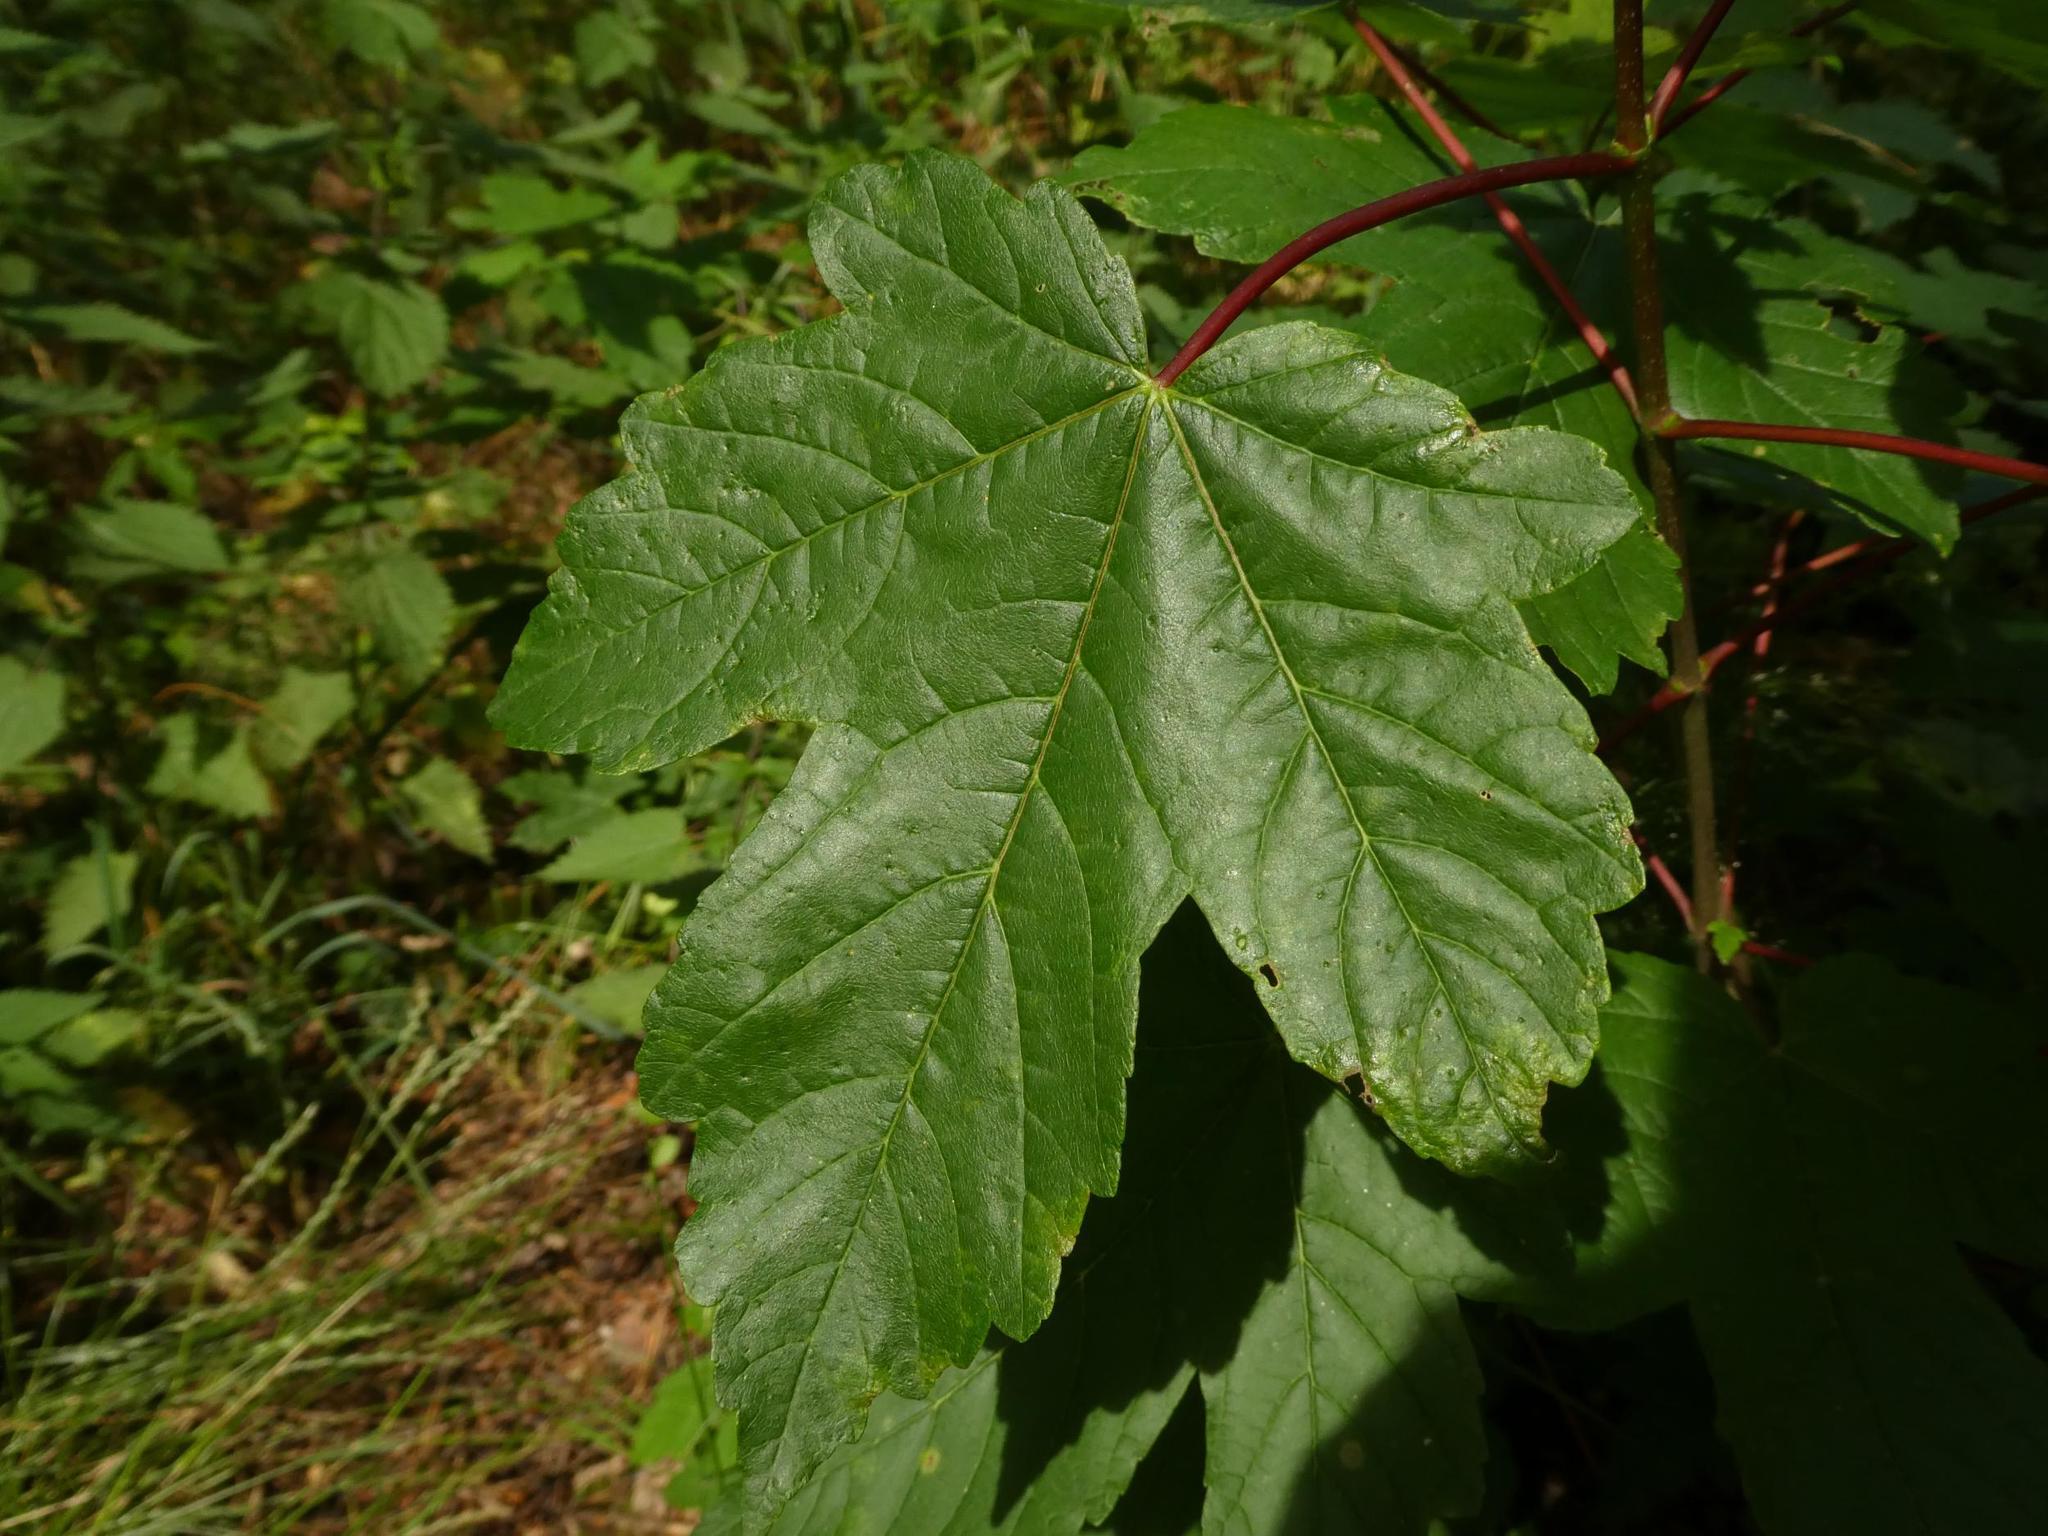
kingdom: Plantae
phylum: Tracheophyta
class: Magnoliopsida
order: Sapindales
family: Sapindaceae
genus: Acer
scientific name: Acer pseudoplatanus
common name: Sycamore
